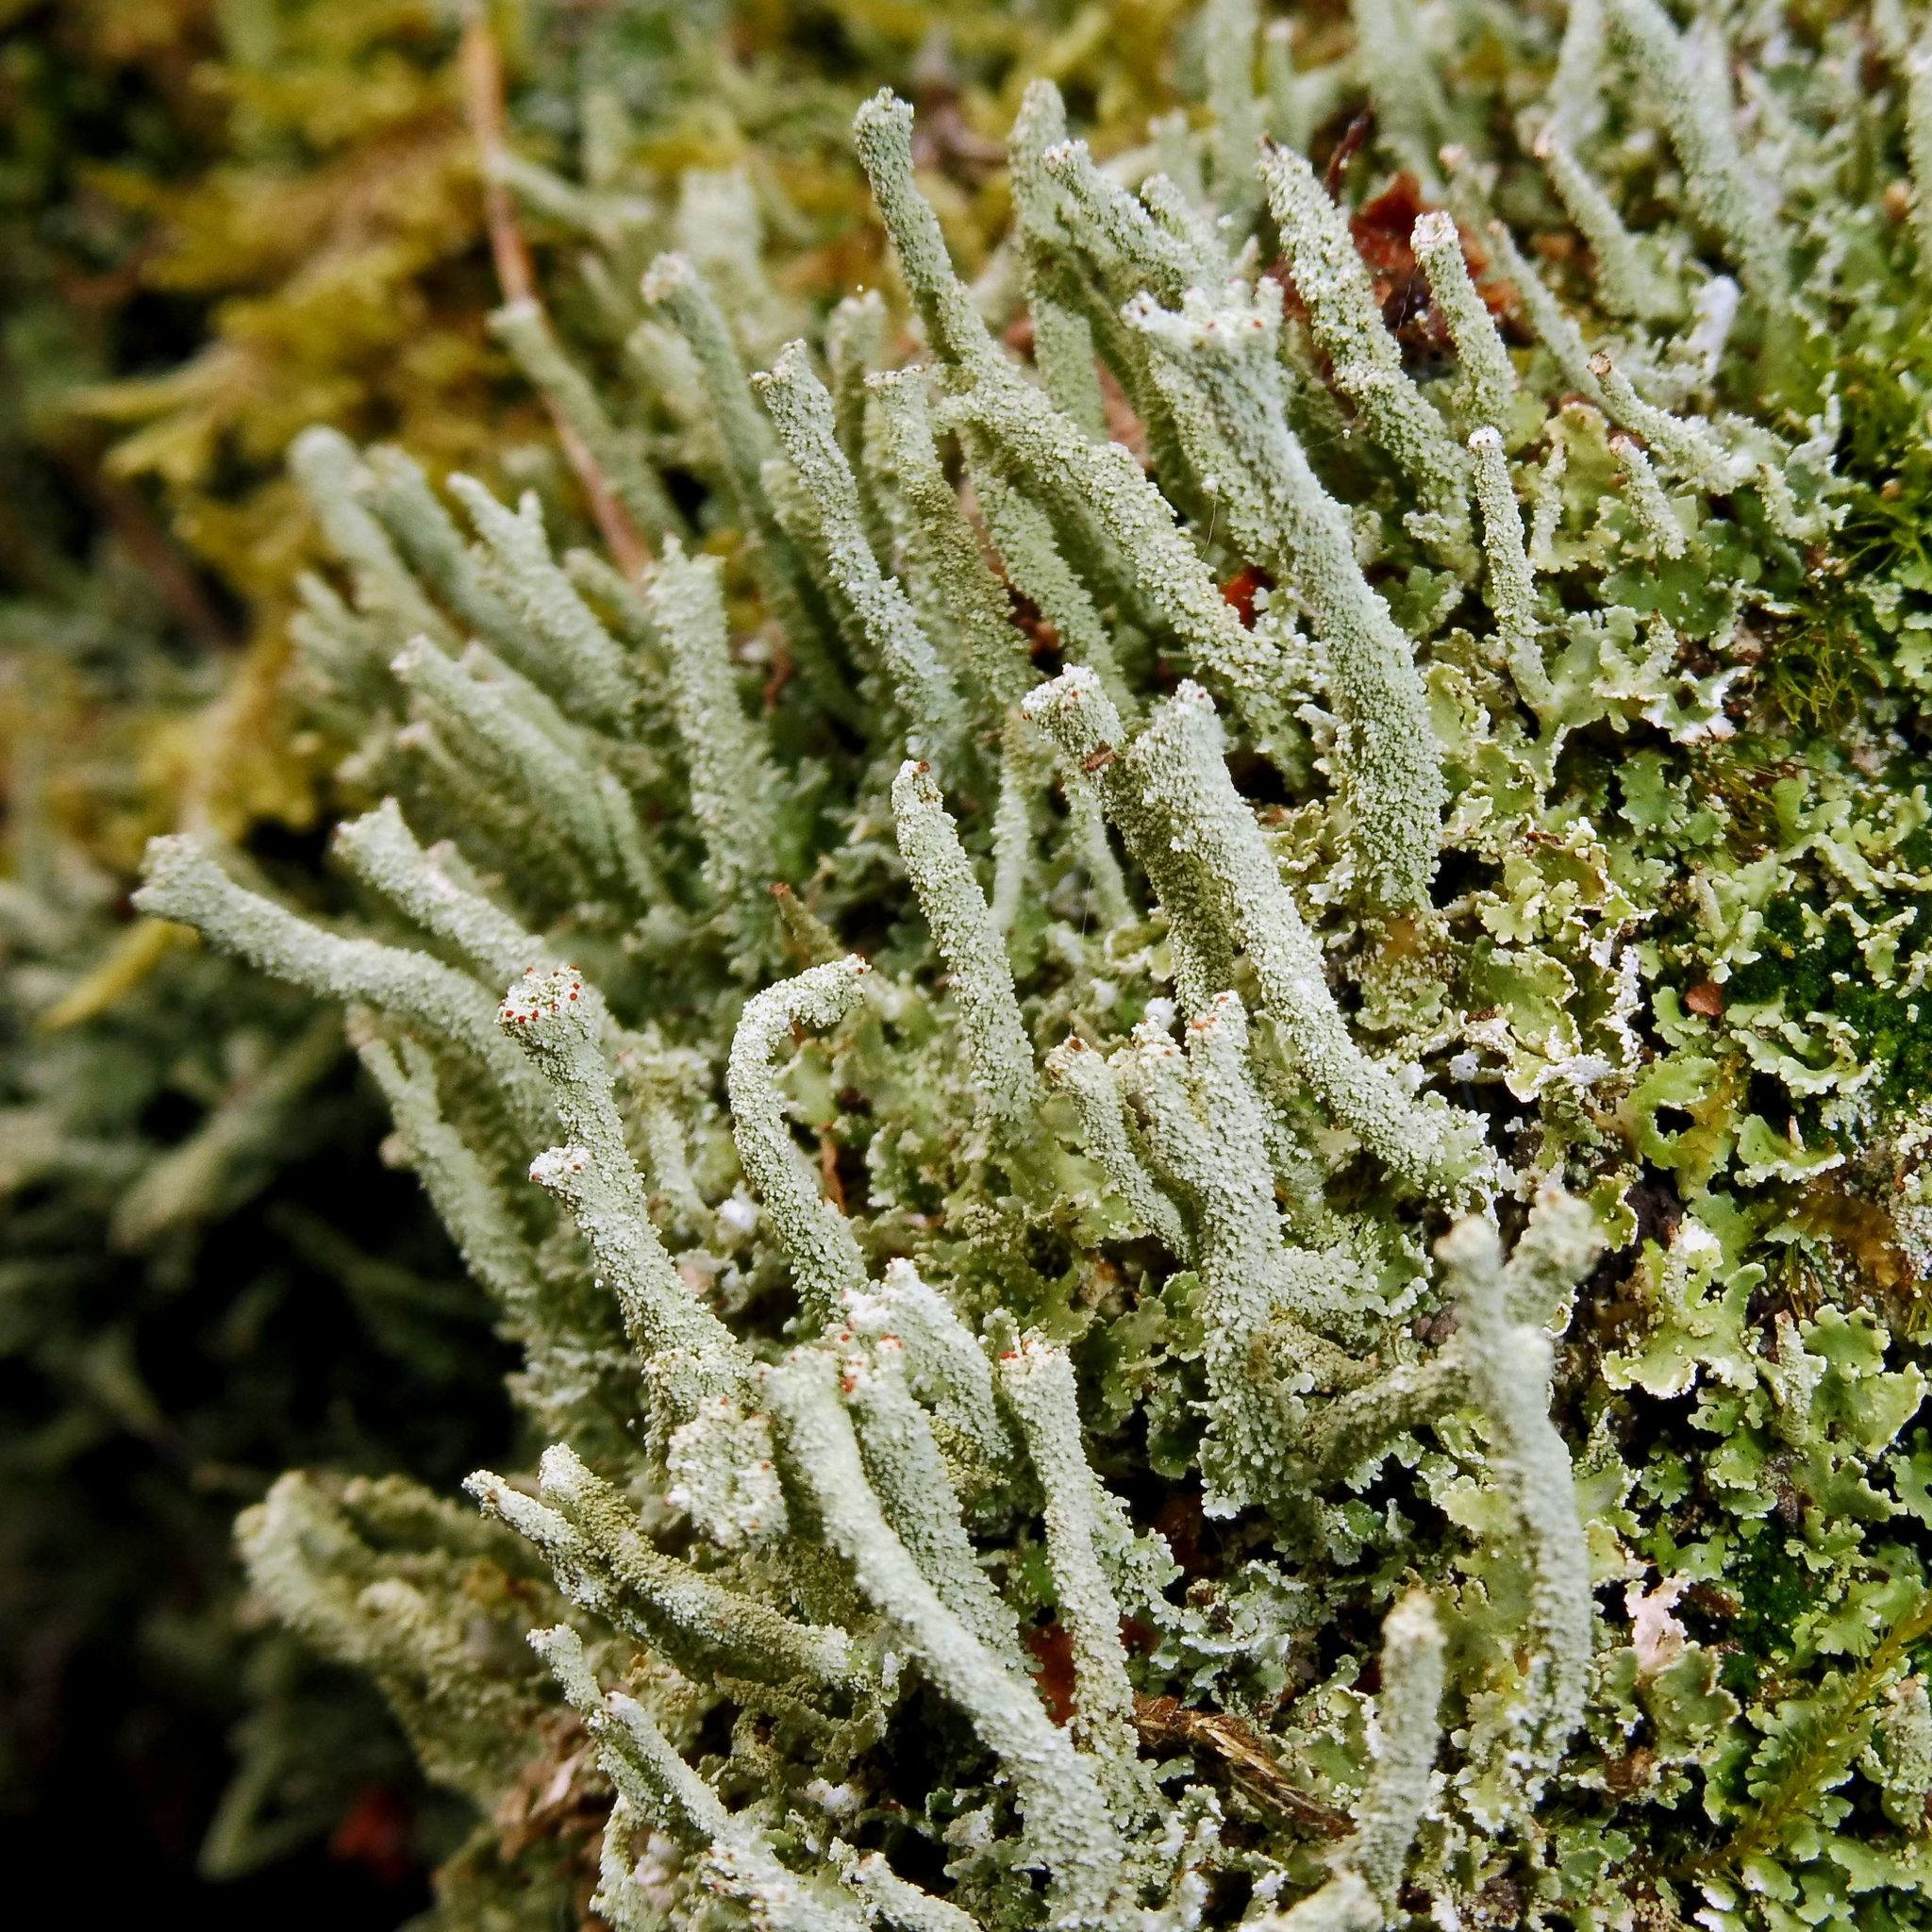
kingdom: Fungi
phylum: Ascomycota
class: Lecanoromycetes
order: Lecanorales
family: Cladoniaceae
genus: Cladonia
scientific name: Cladonia polydactyla
